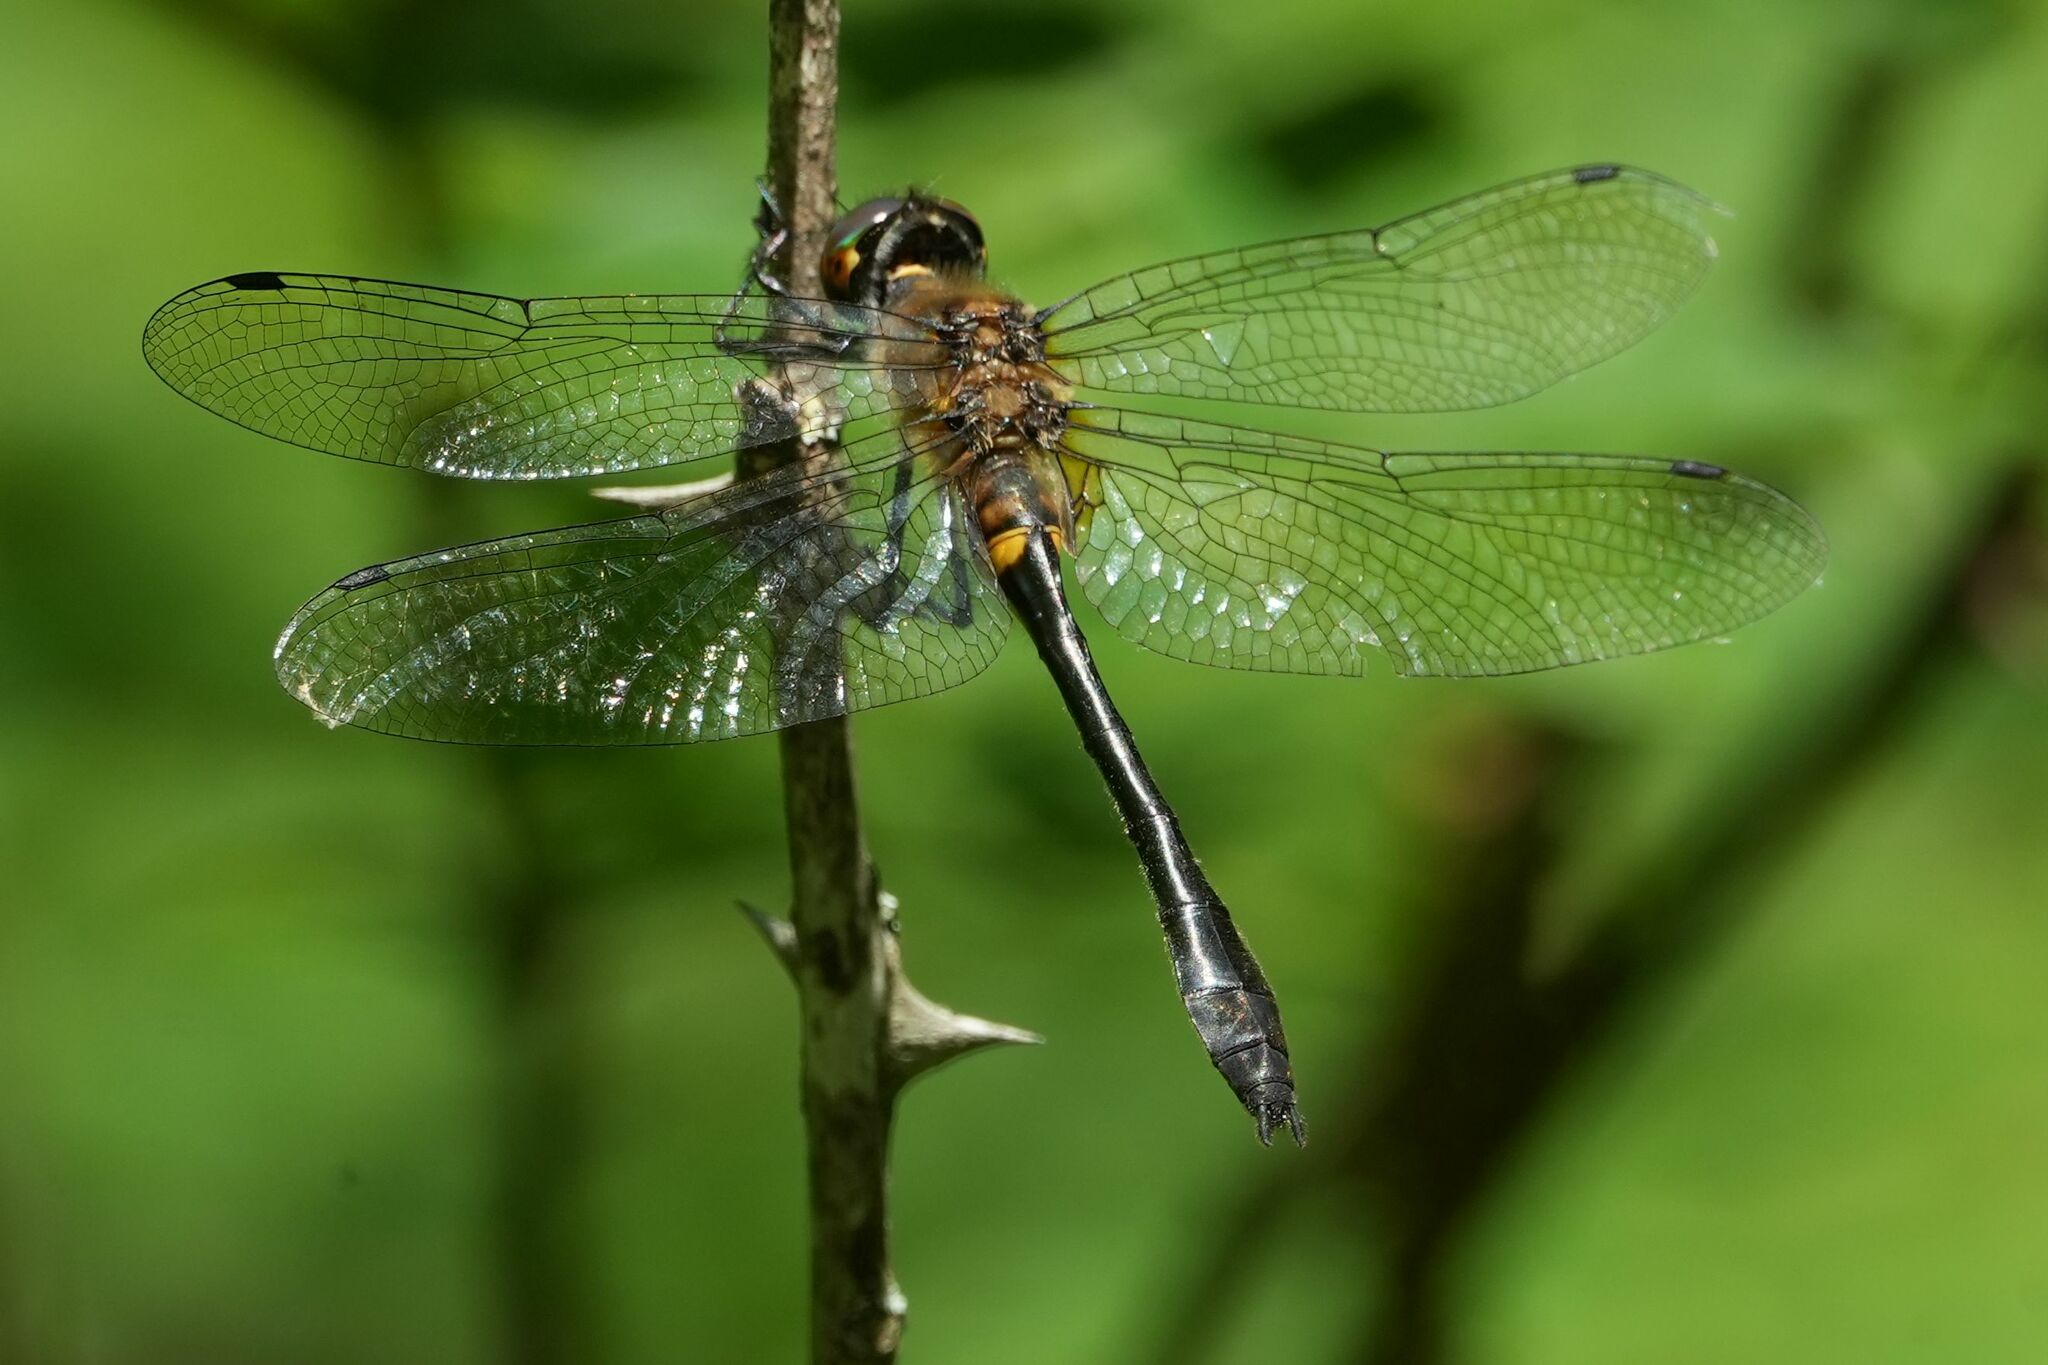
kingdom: Animalia
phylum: Arthropoda
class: Insecta
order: Odonata
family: Corduliidae
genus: Dorocordulia
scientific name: Dorocordulia libera
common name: Racket-tailed emerald
